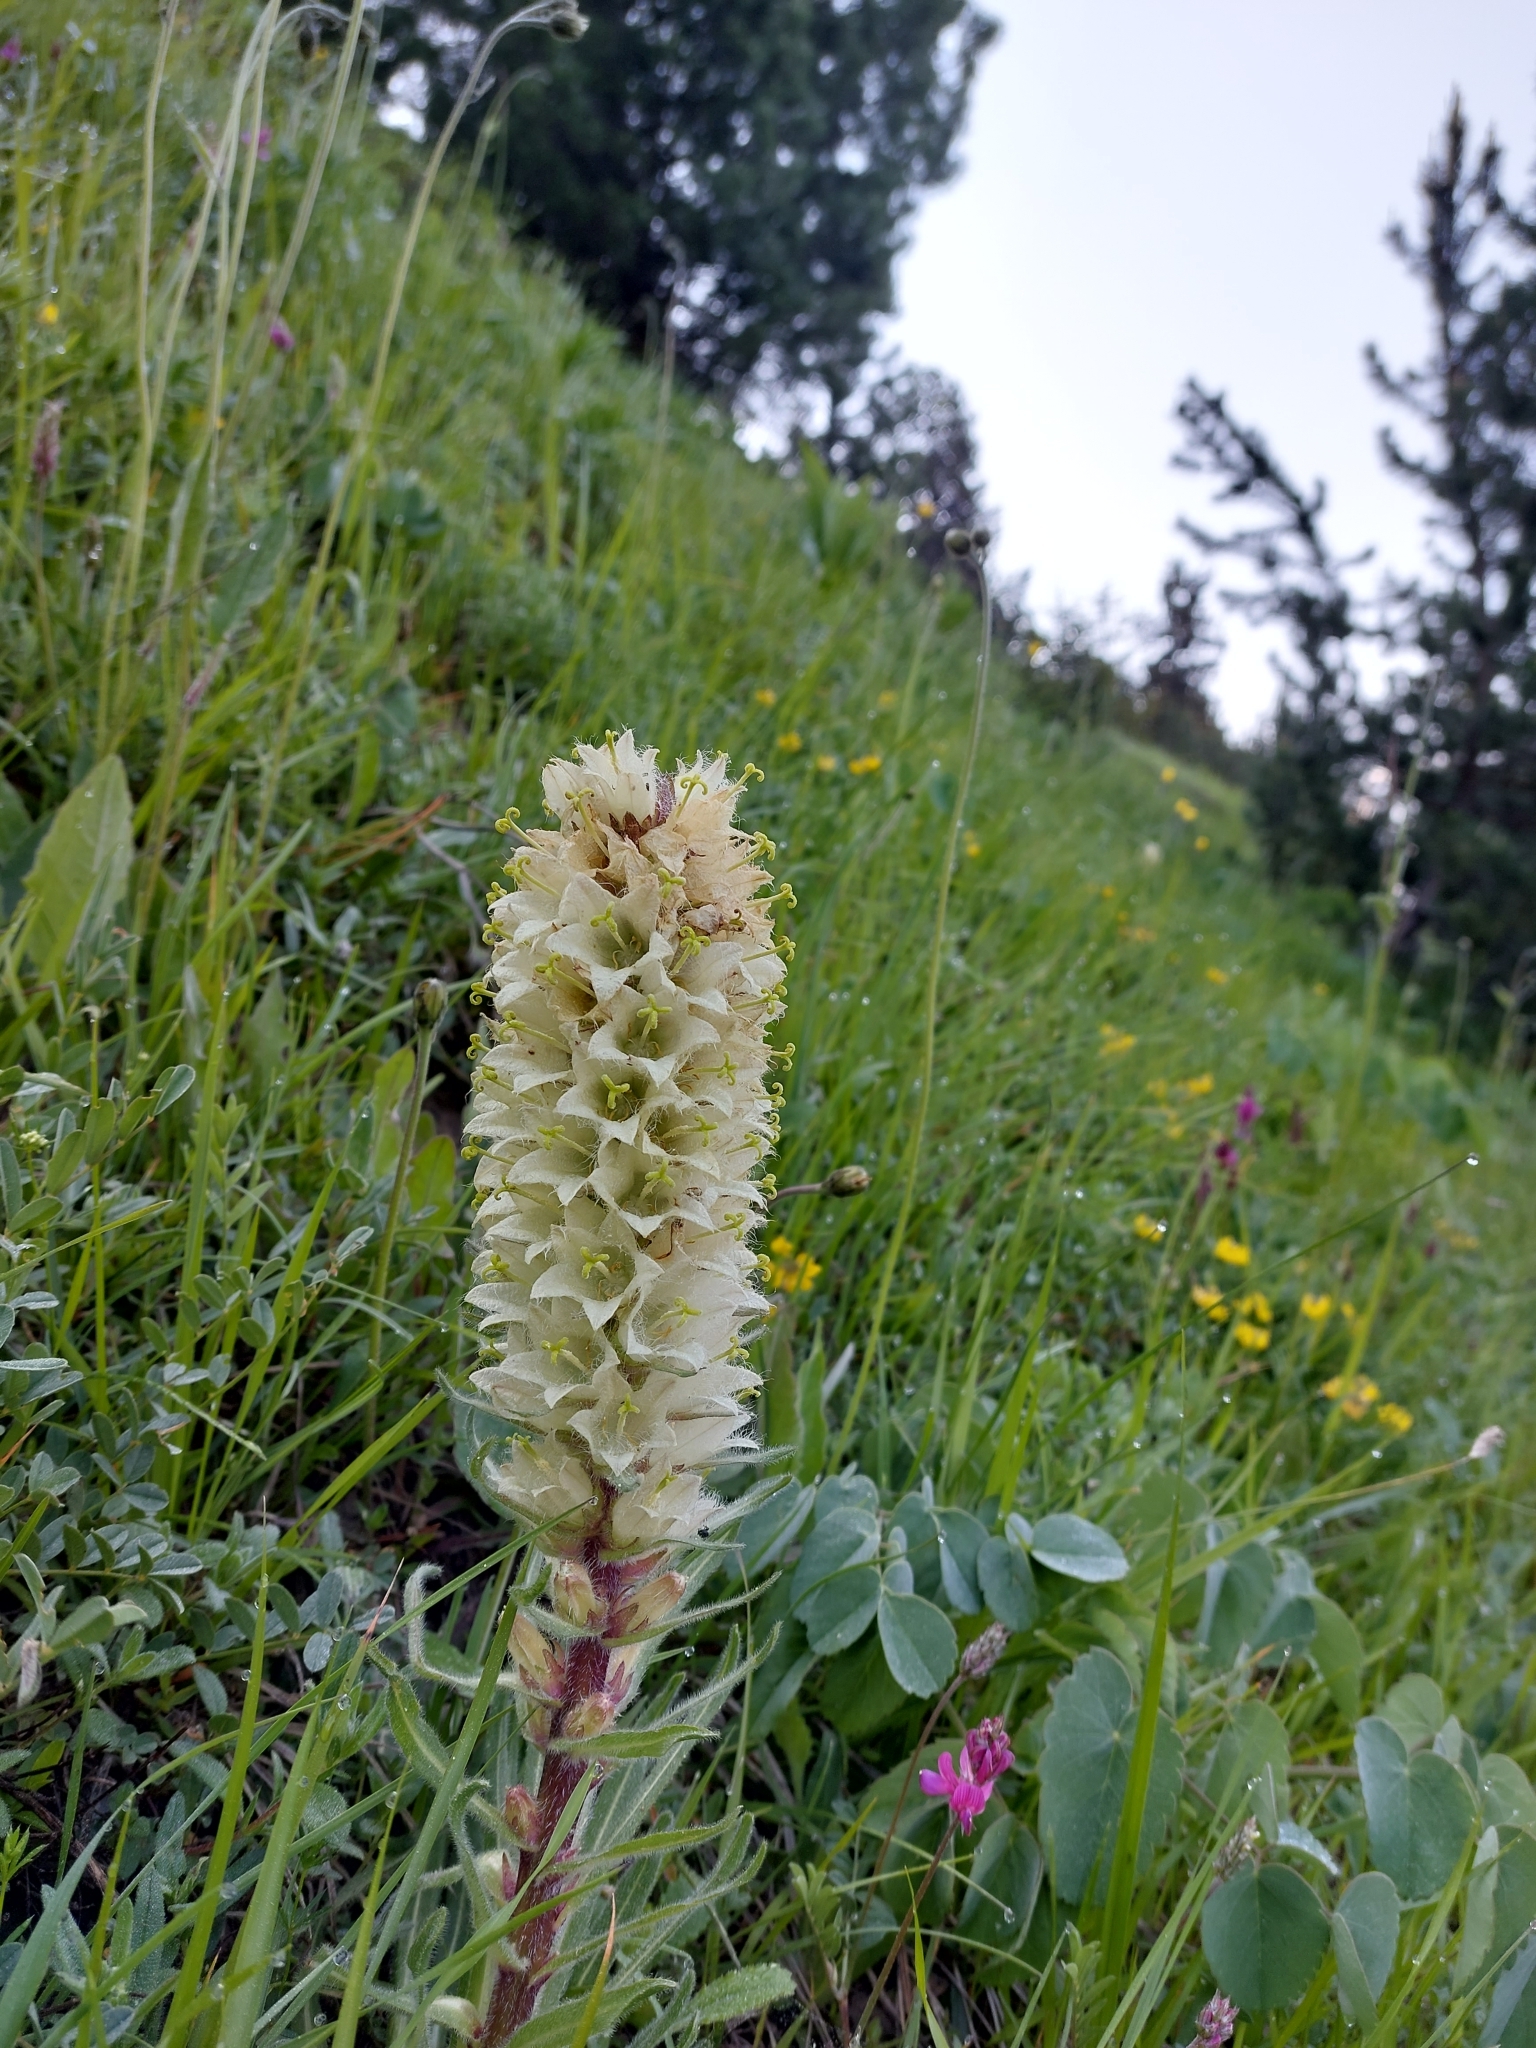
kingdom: Plantae
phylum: Tracheophyta
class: Magnoliopsida
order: Asterales
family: Campanulaceae
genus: Campanula
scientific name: Campanula thyrsoides
